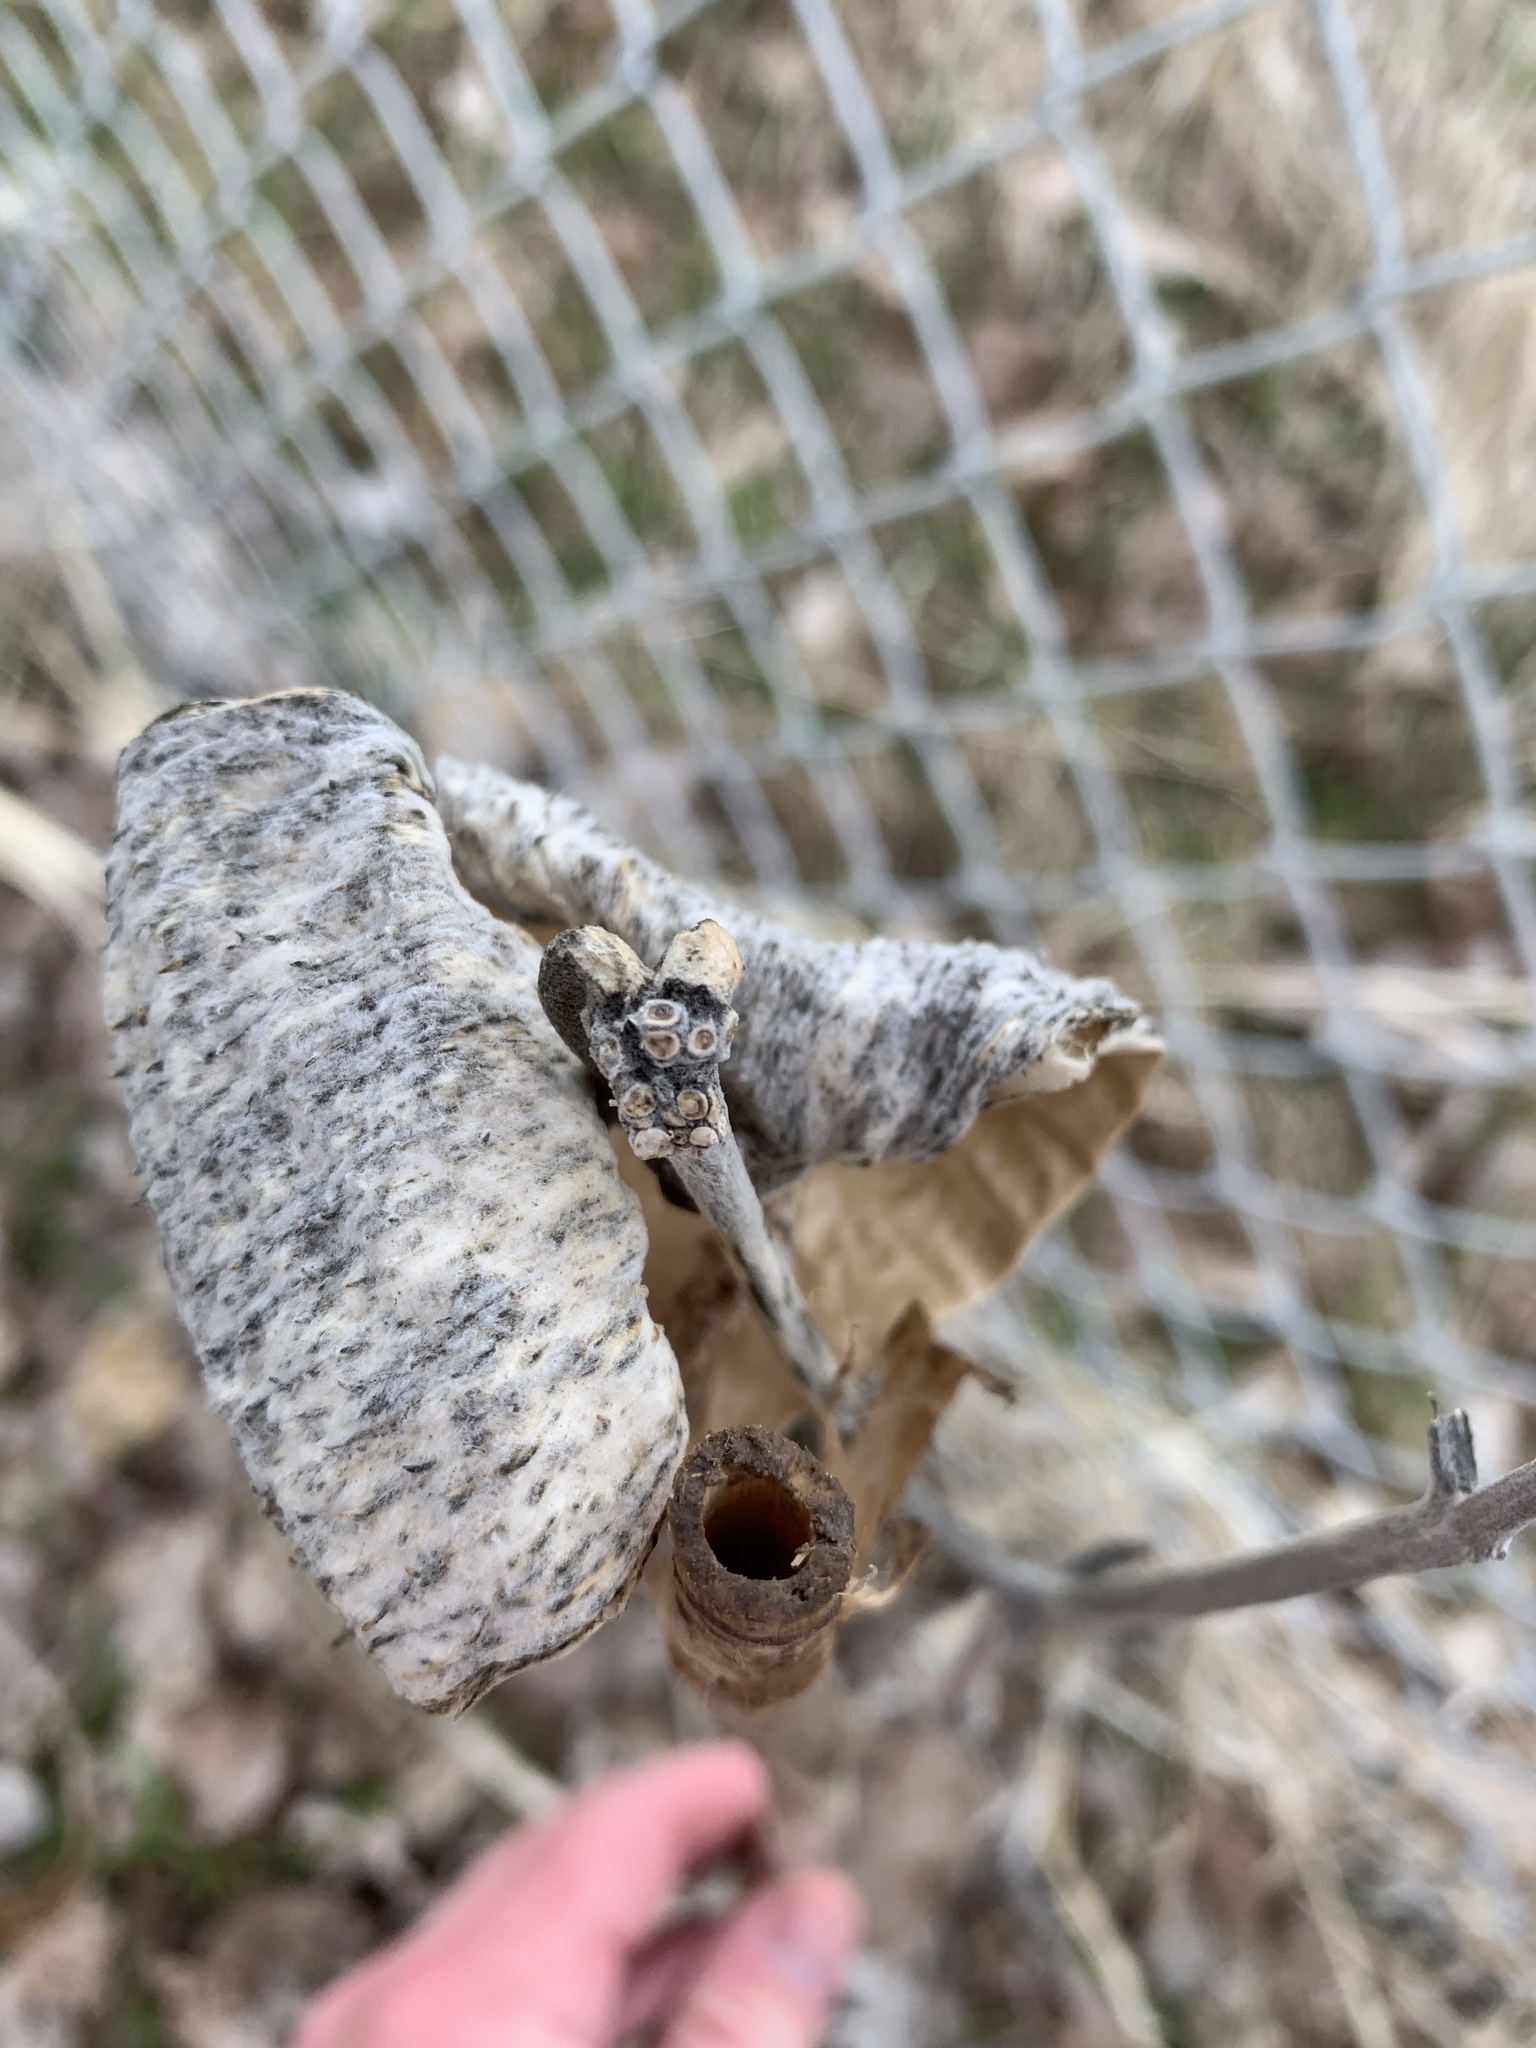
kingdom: Plantae
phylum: Tracheophyta
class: Magnoliopsida
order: Gentianales
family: Apocynaceae
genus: Asclepias
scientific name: Asclepias speciosa
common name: Showy milkweed
